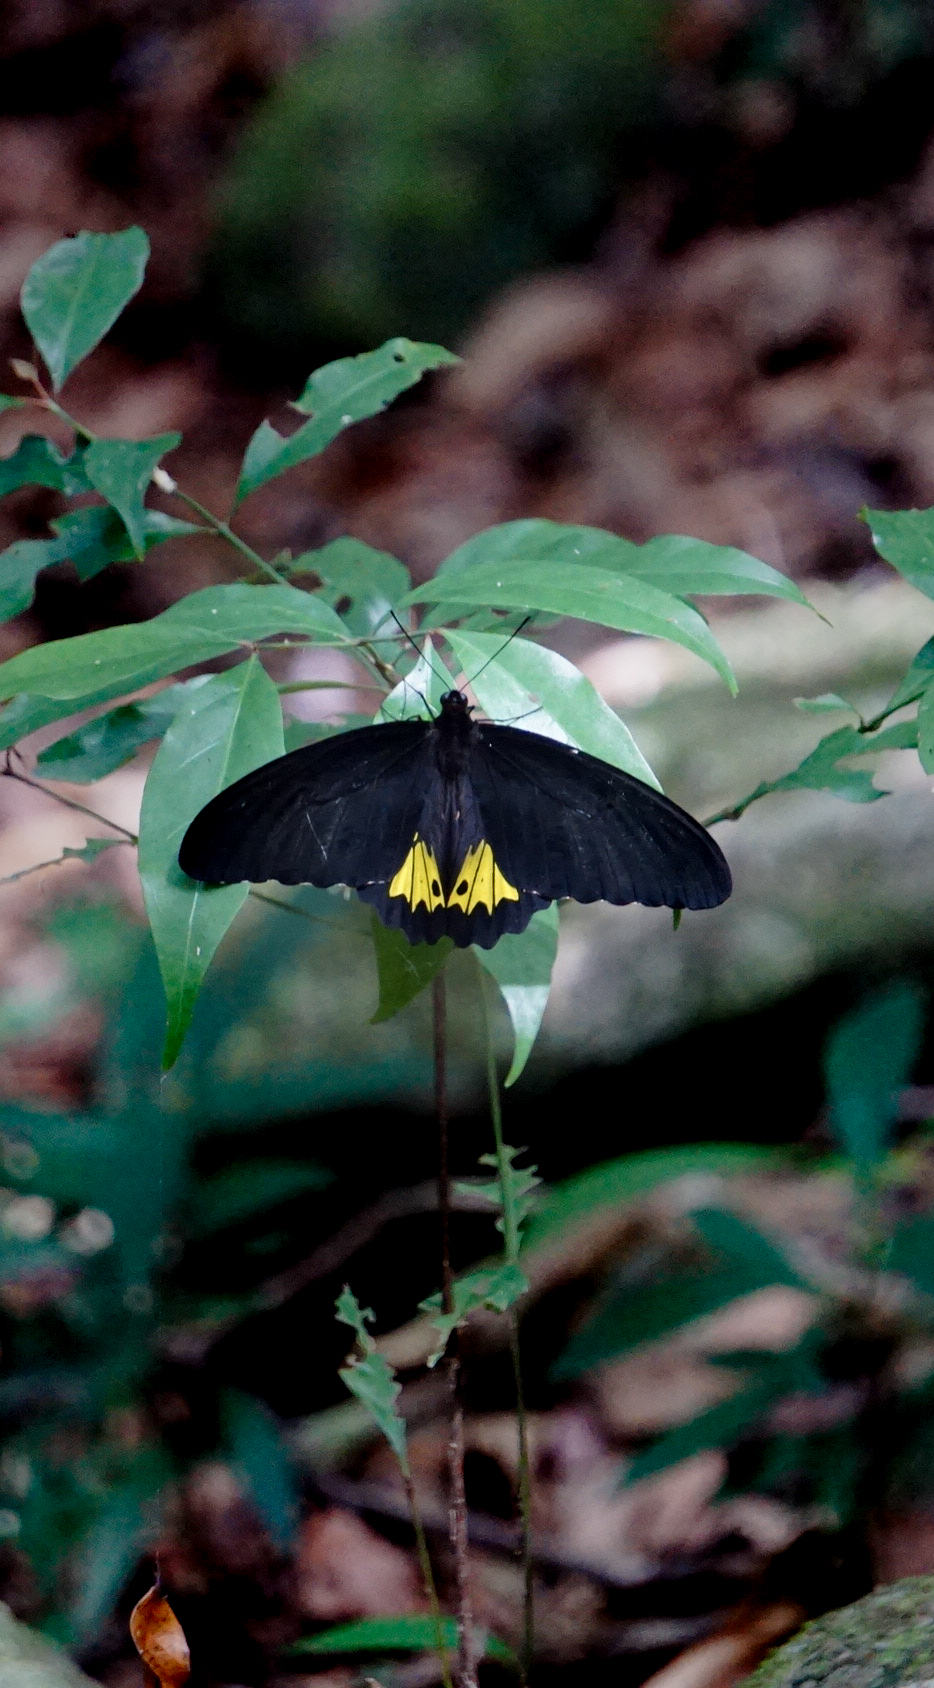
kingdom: Animalia
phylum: Arthropoda
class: Insecta
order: Lepidoptera
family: Papilionidae
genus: Troides
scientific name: Troides darsius
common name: Sri lankan birdwing
